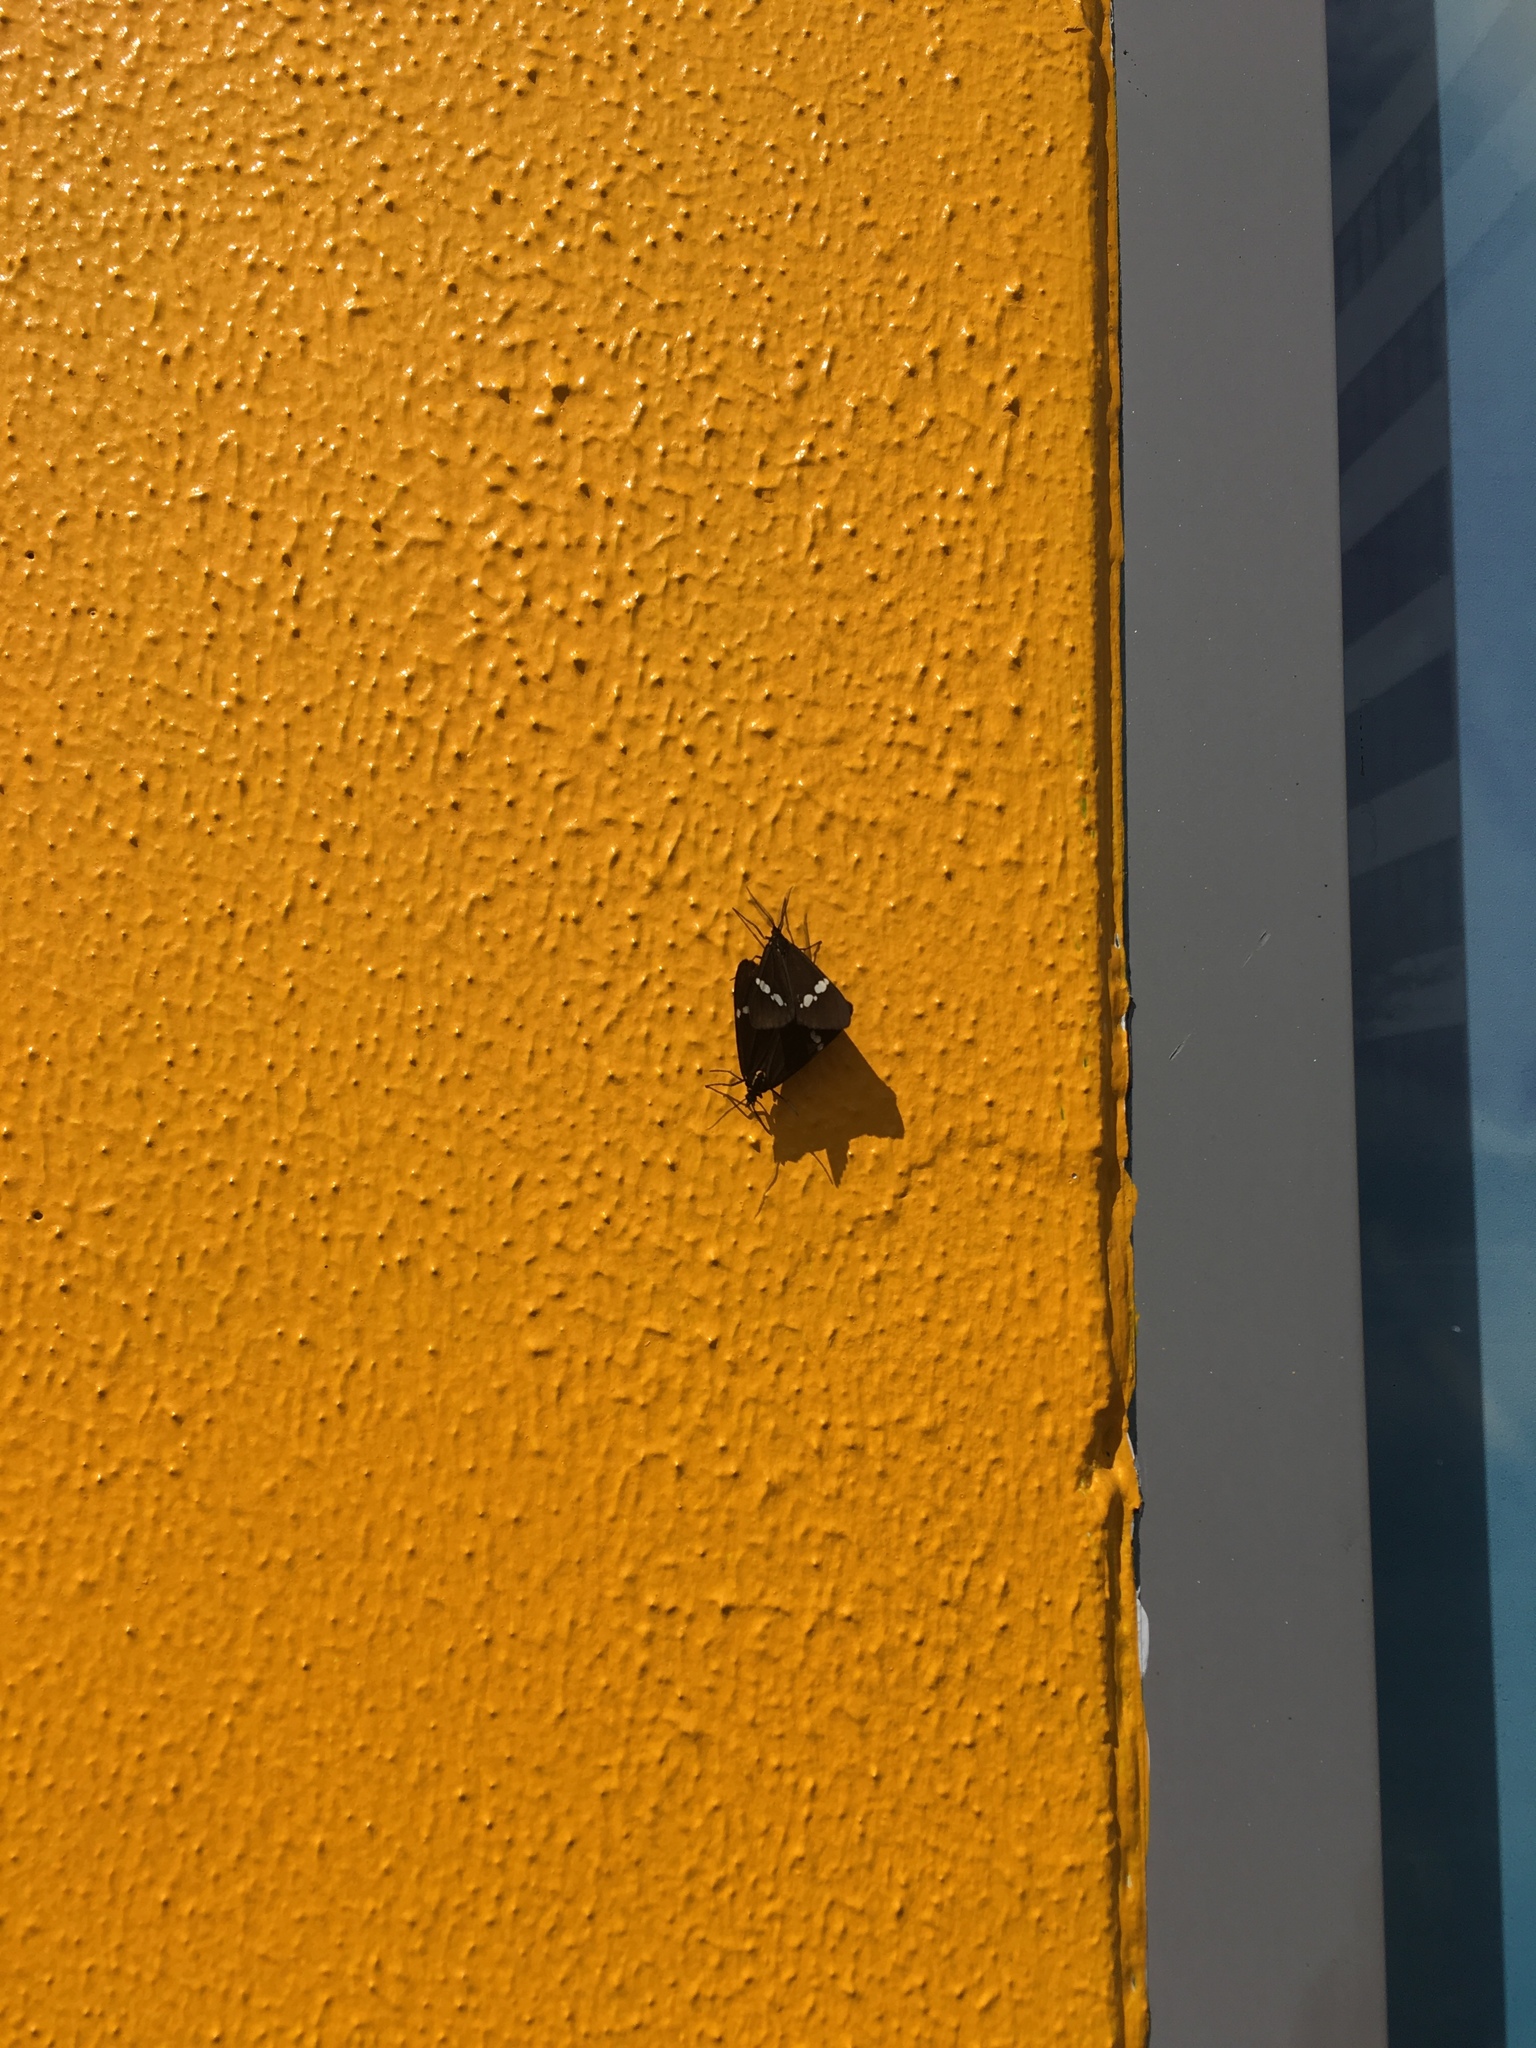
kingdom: Animalia
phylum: Arthropoda
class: Insecta
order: Lepidoptera
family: Erebidae
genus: Nyctemera
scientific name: Nyctemera annulatum
